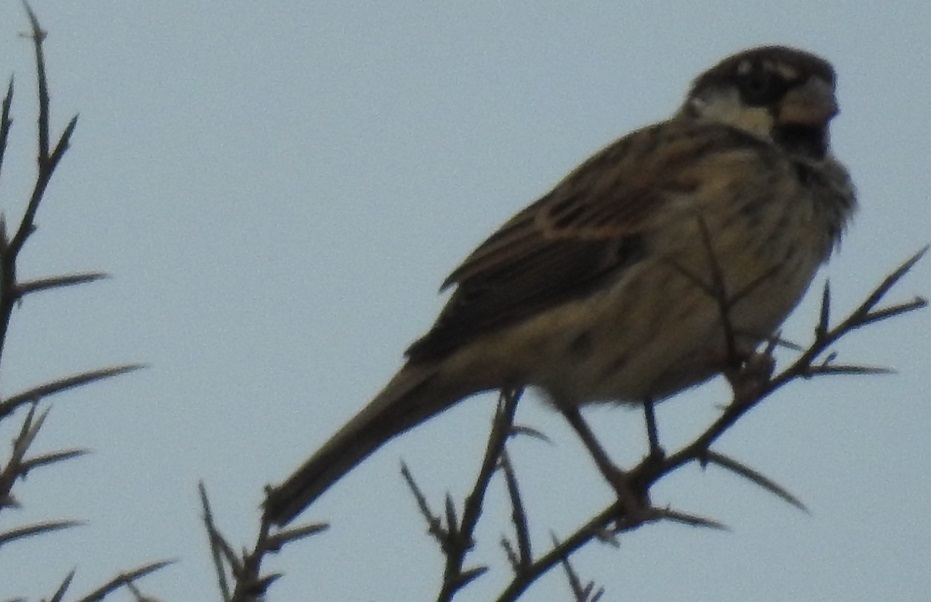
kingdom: Animalia
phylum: Chordata
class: Aves
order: Passeriformes
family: Passeridae
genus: Passer
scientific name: Passer hispaniolensis
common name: Spanish sparrow
